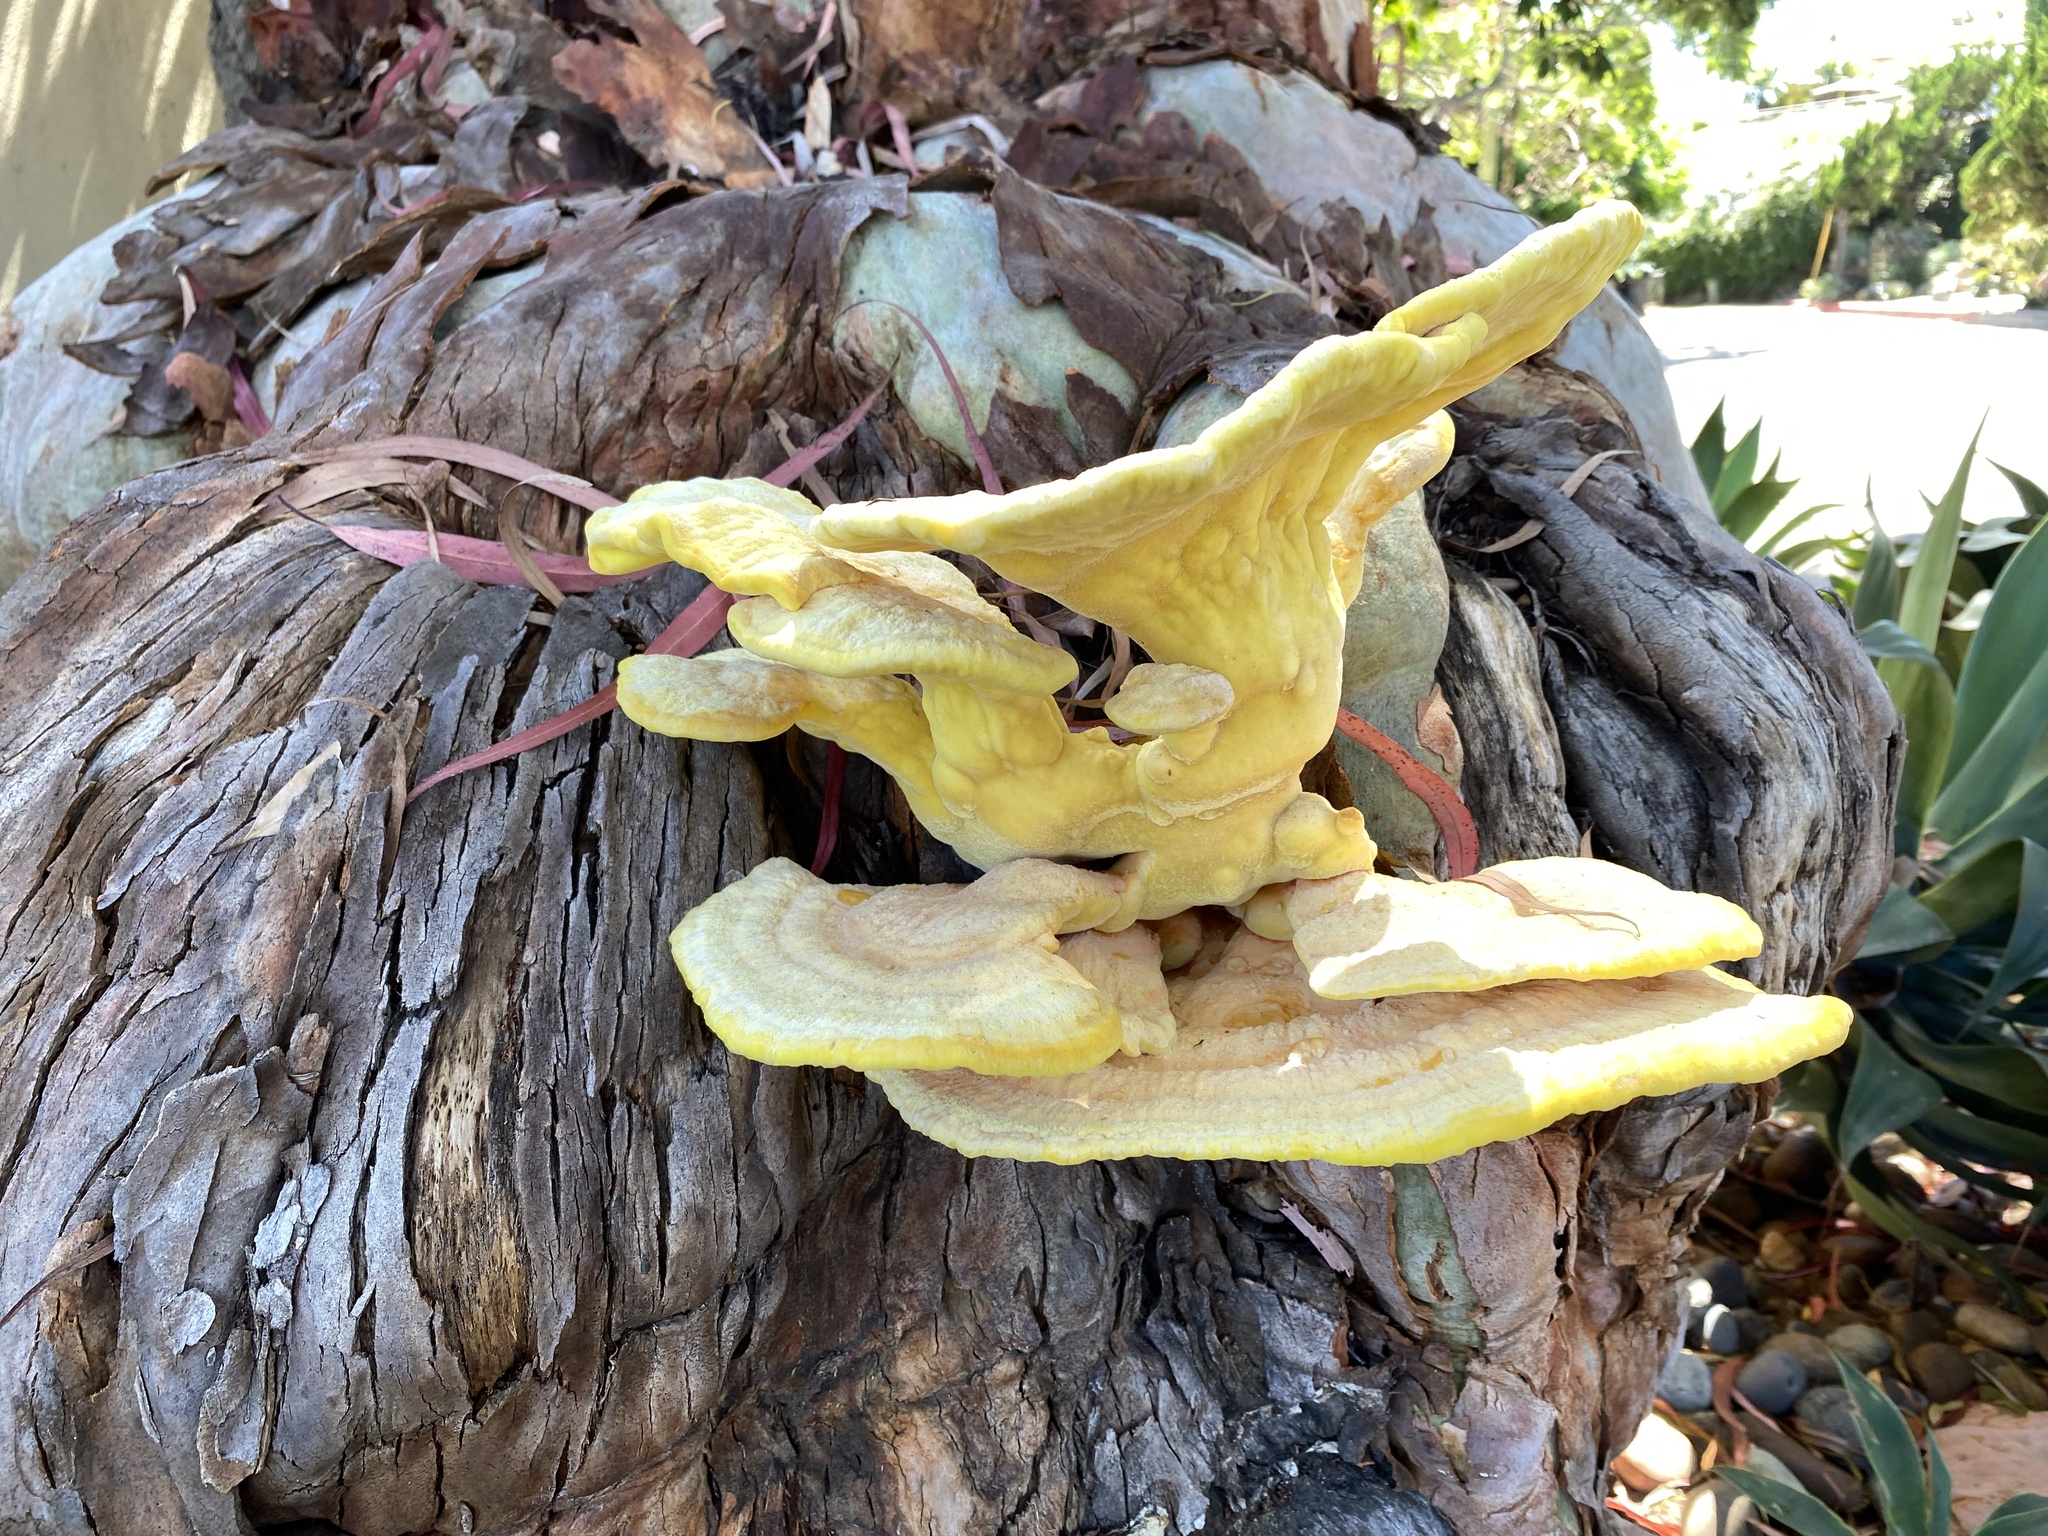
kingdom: Fungi
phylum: Basidiomycota
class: Agaricomycetes
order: Polyporales
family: Laetiporaceae
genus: Laetiporus
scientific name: Laetiporus gilbertsonii
